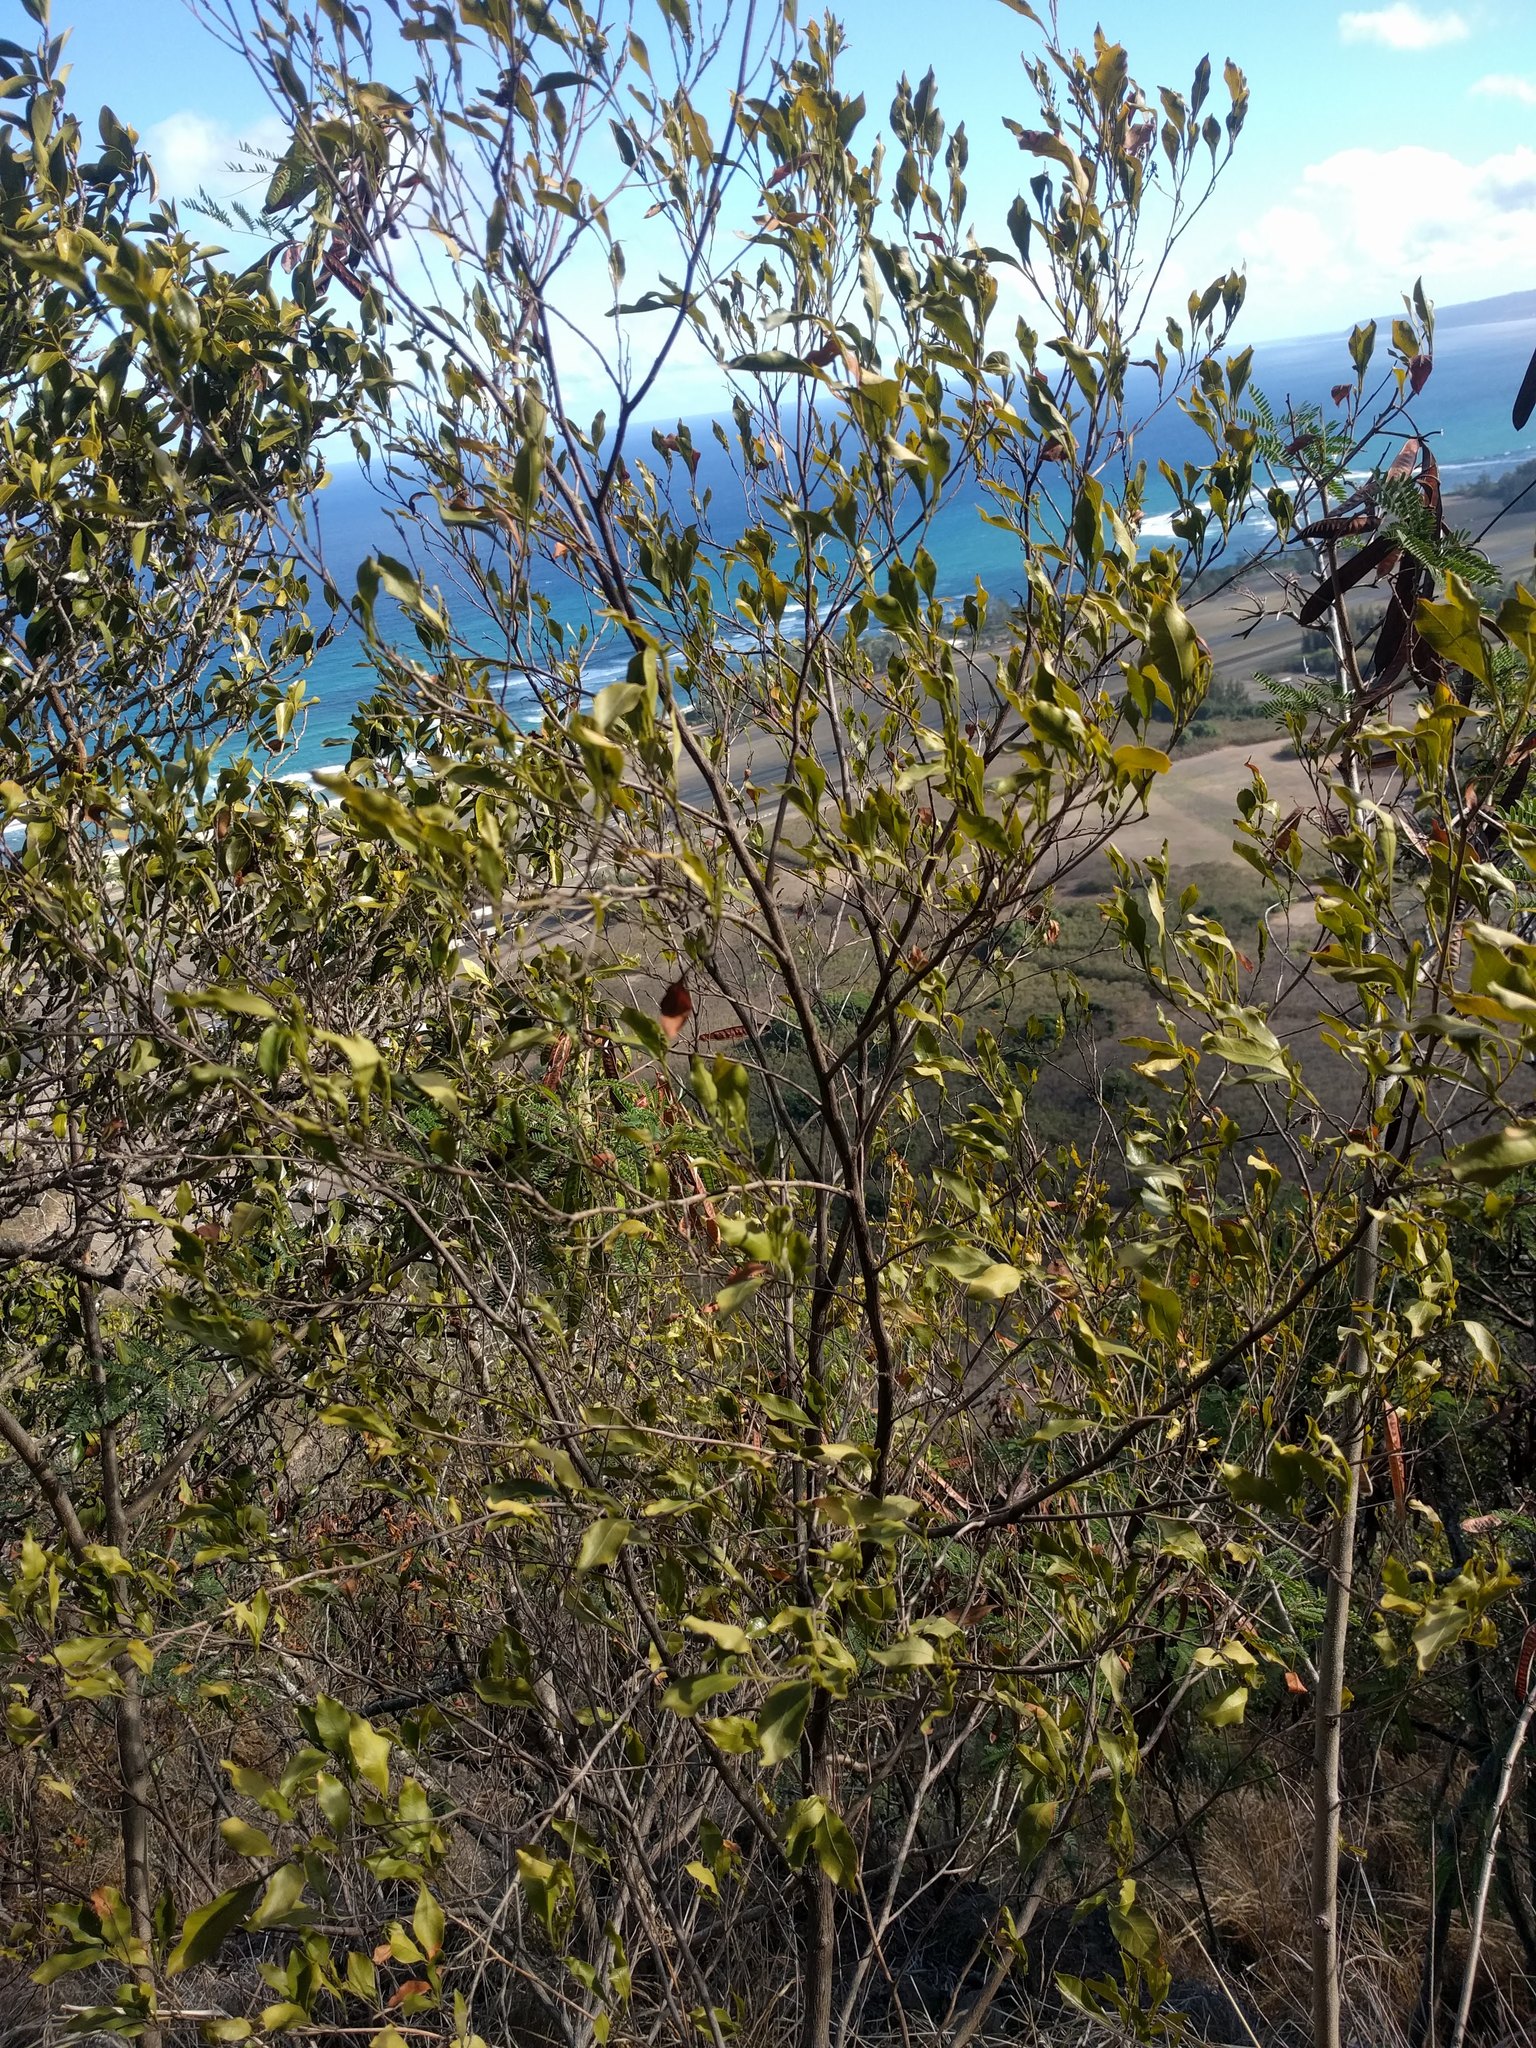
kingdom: Plantae
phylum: Tracheophyta
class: Magnoliopsida
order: Sapindales
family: Sapindaceae
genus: Dodonaea
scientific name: Dodonaea viscosa
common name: Hopbush
